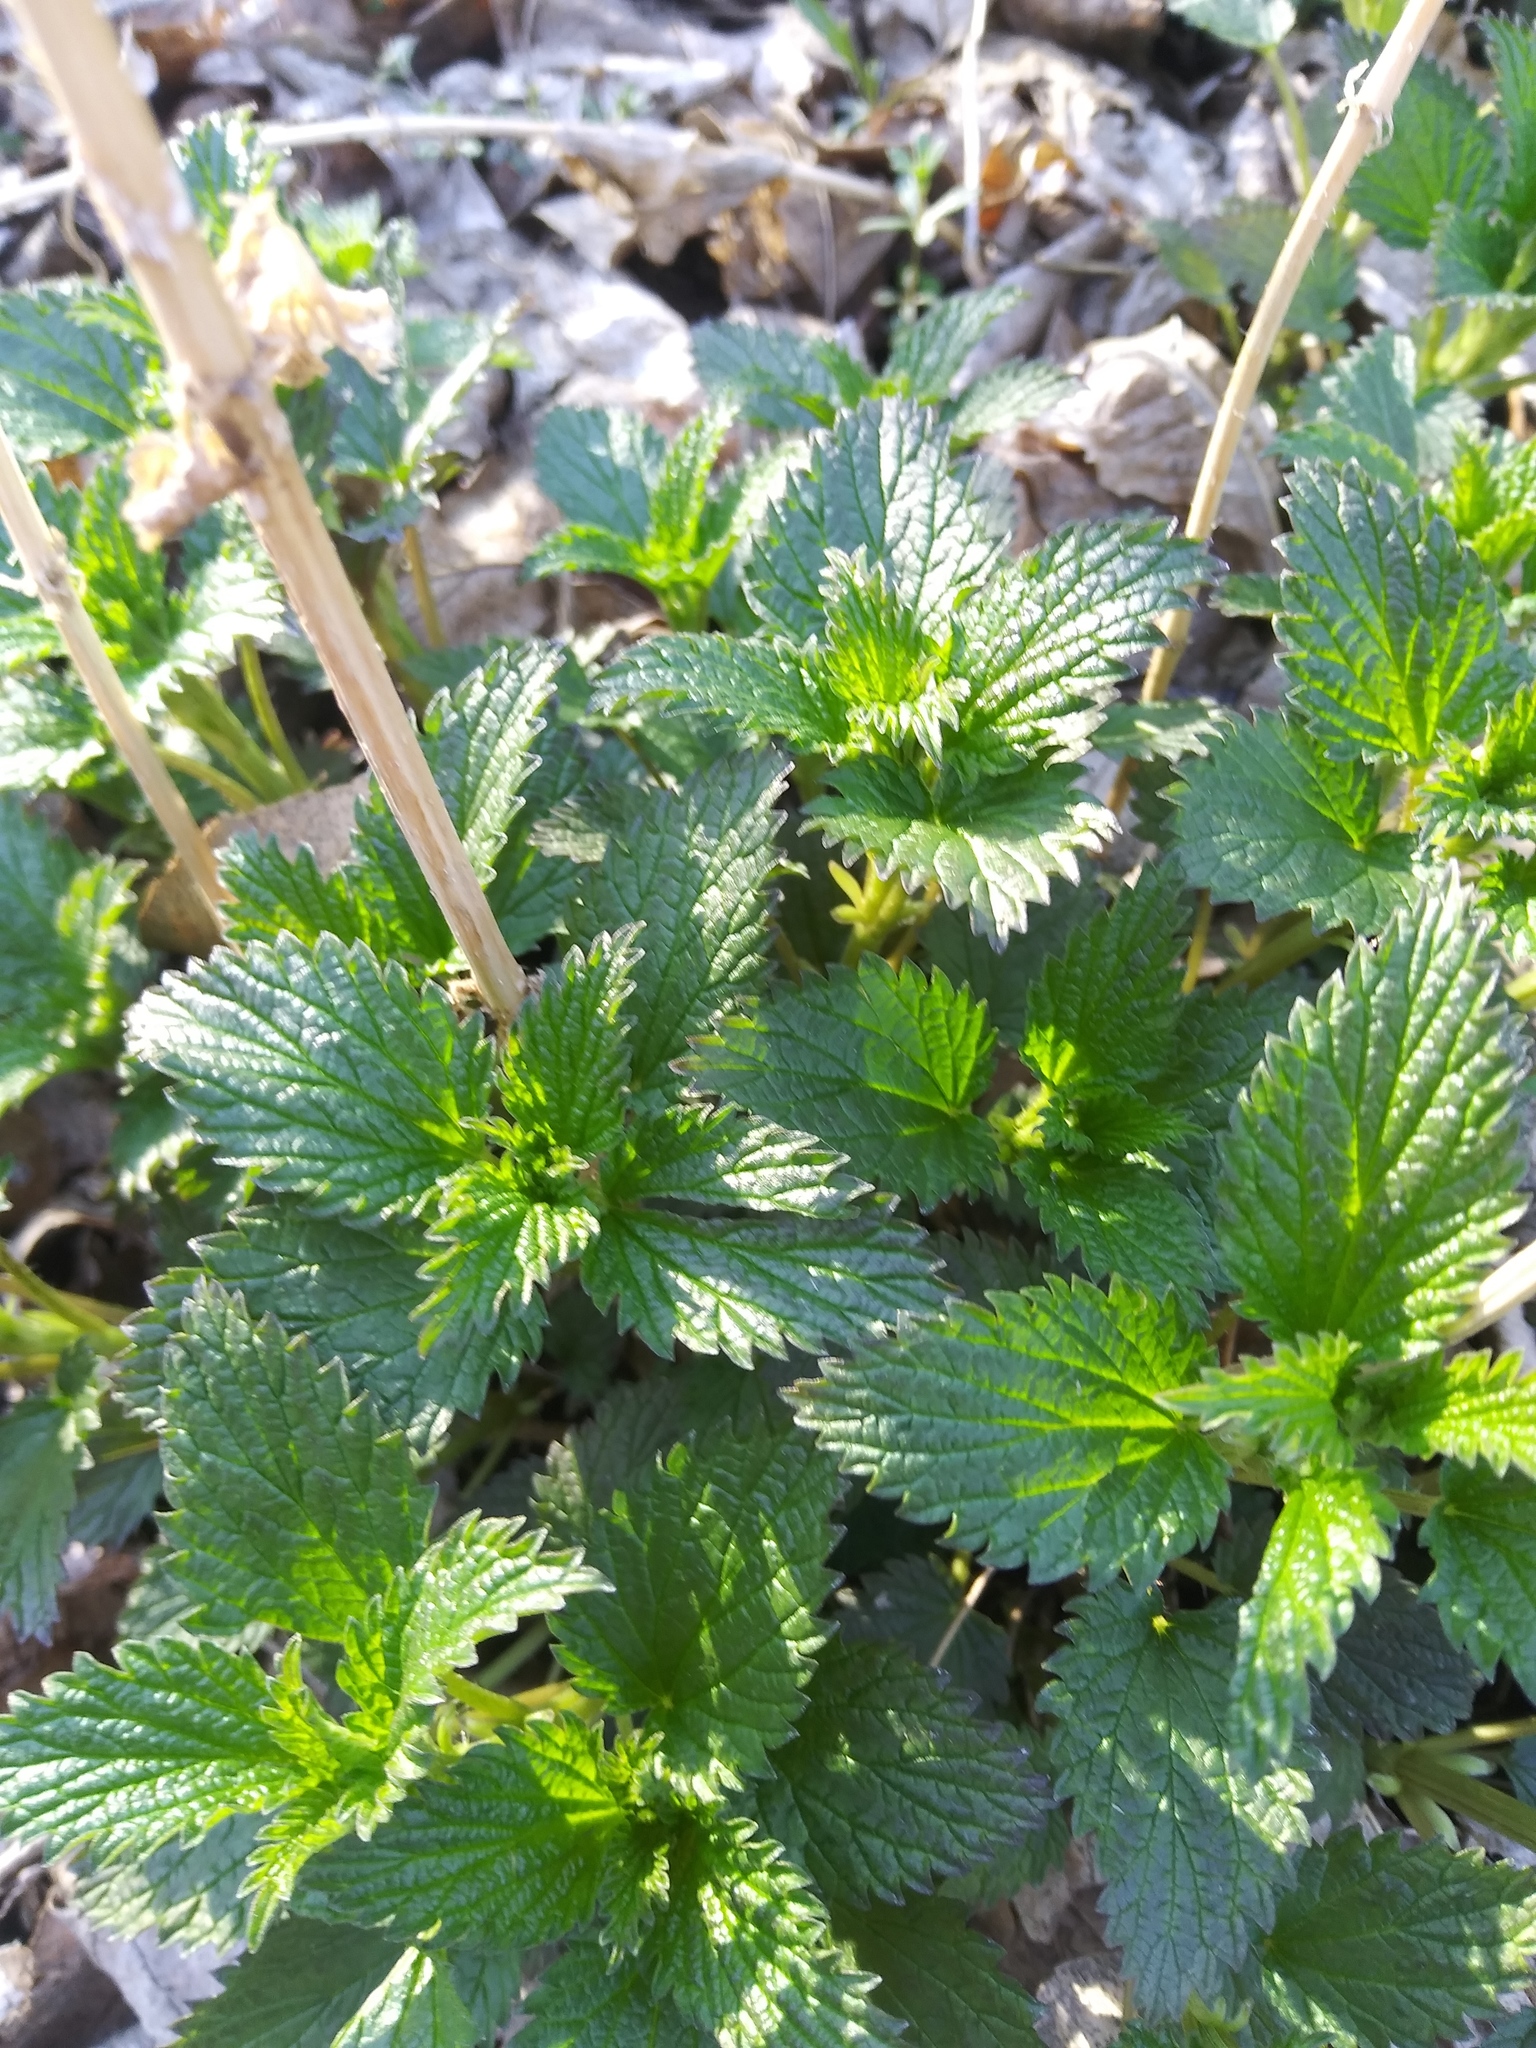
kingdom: Plantae
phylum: Tracheophyta
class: Magnoliopsida
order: Rosales
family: Urticaceae
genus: Urtica
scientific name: Urtica dioica
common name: Common nettle
